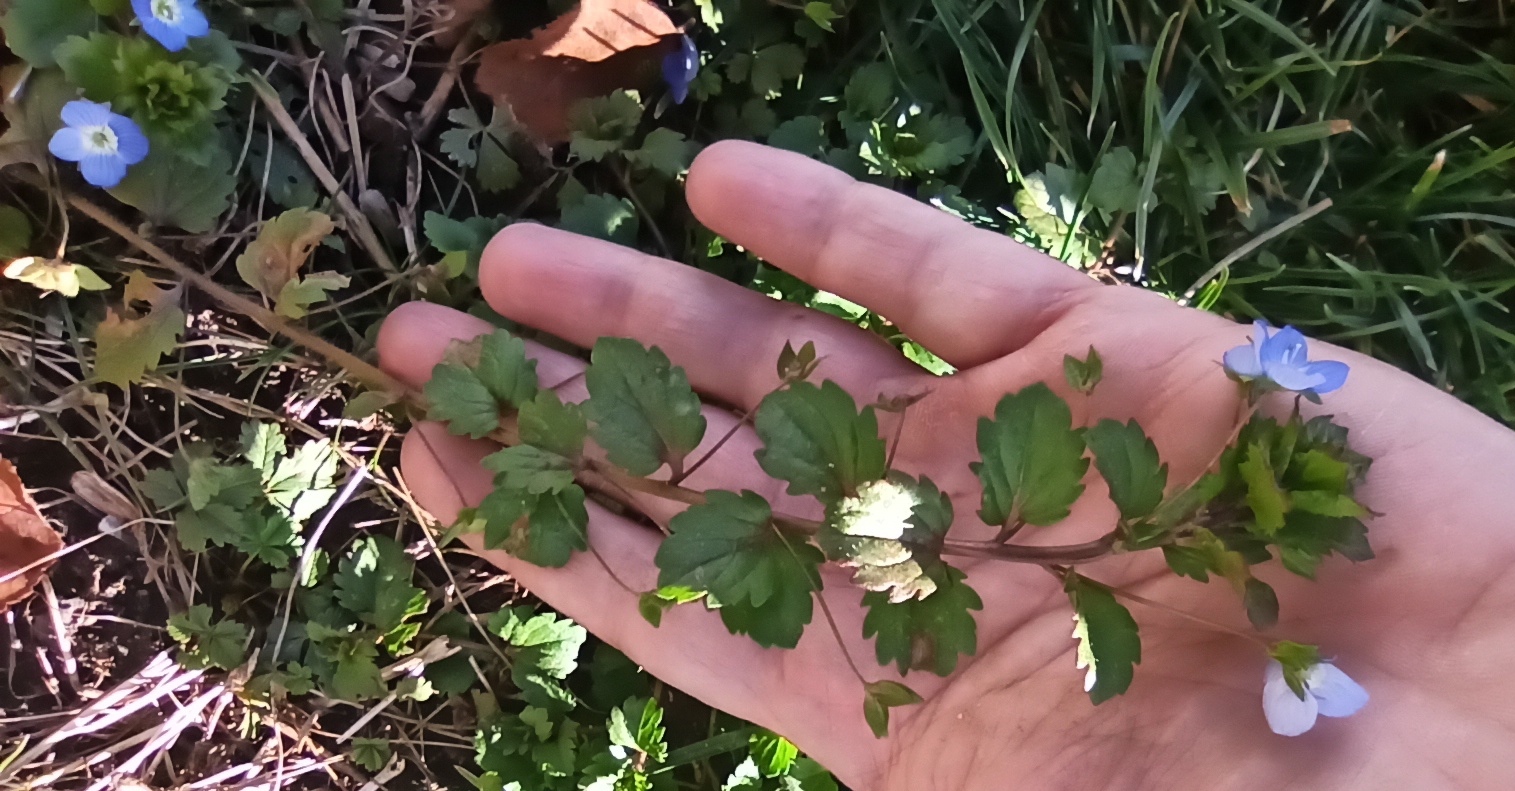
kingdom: Plantae
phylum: Tracheophyta
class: Magnoliopsida
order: Lamiales
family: Plantaginaceae
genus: Veronica
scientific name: Veronica persica
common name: Common field-speedwell
